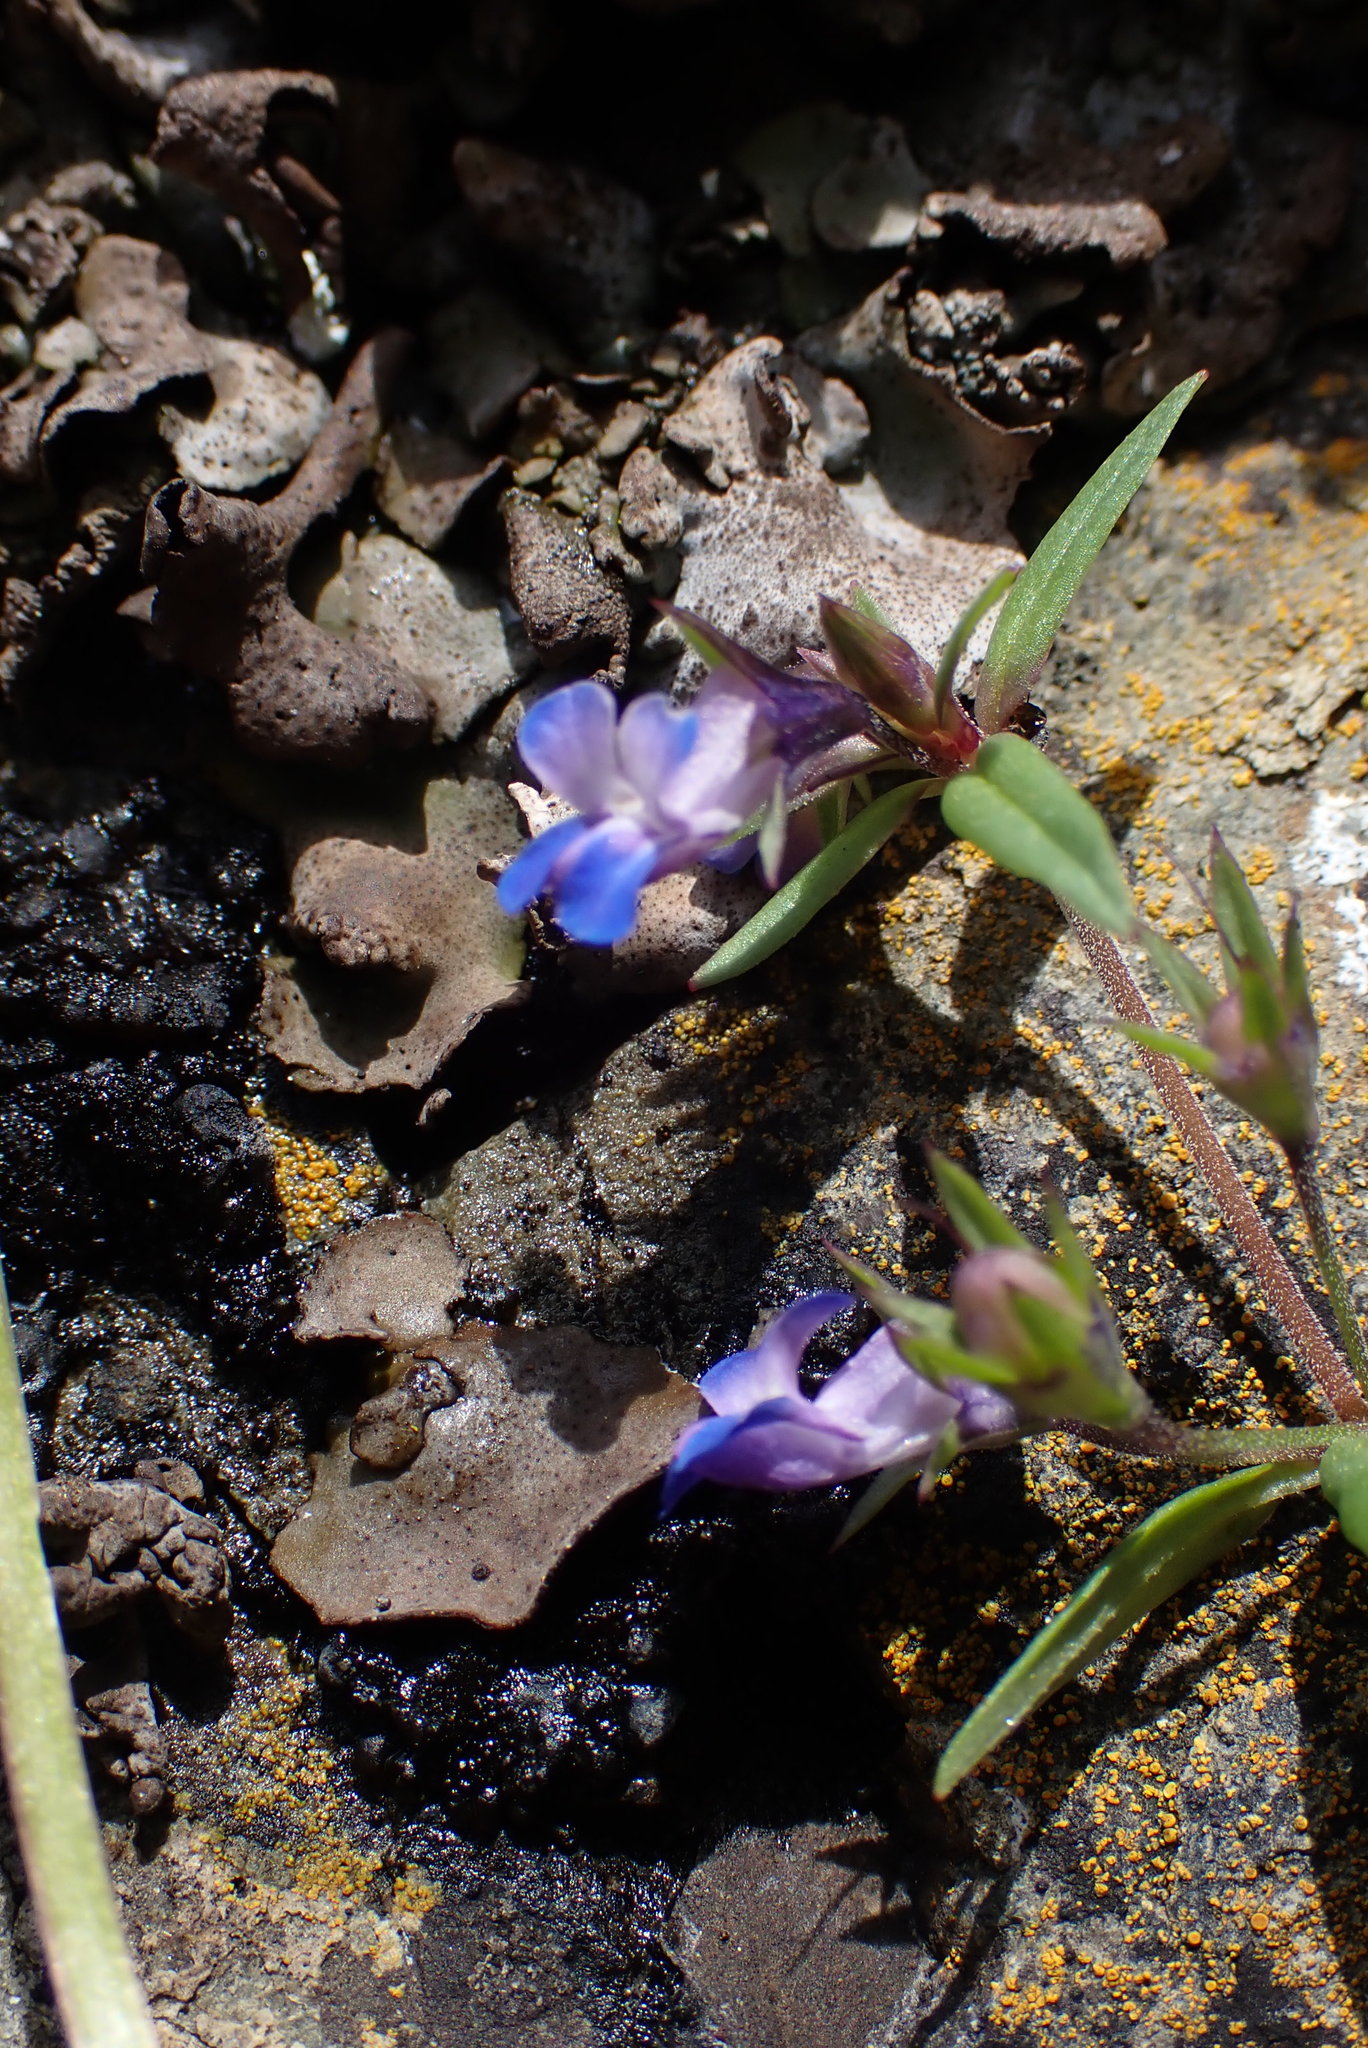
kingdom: Plantae
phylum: Tracheophyta
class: Magnoliopsida
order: Lamiales
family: Plantaginaceae
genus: Collinsia
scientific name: Collinsia parviflora
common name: Blue-lips
